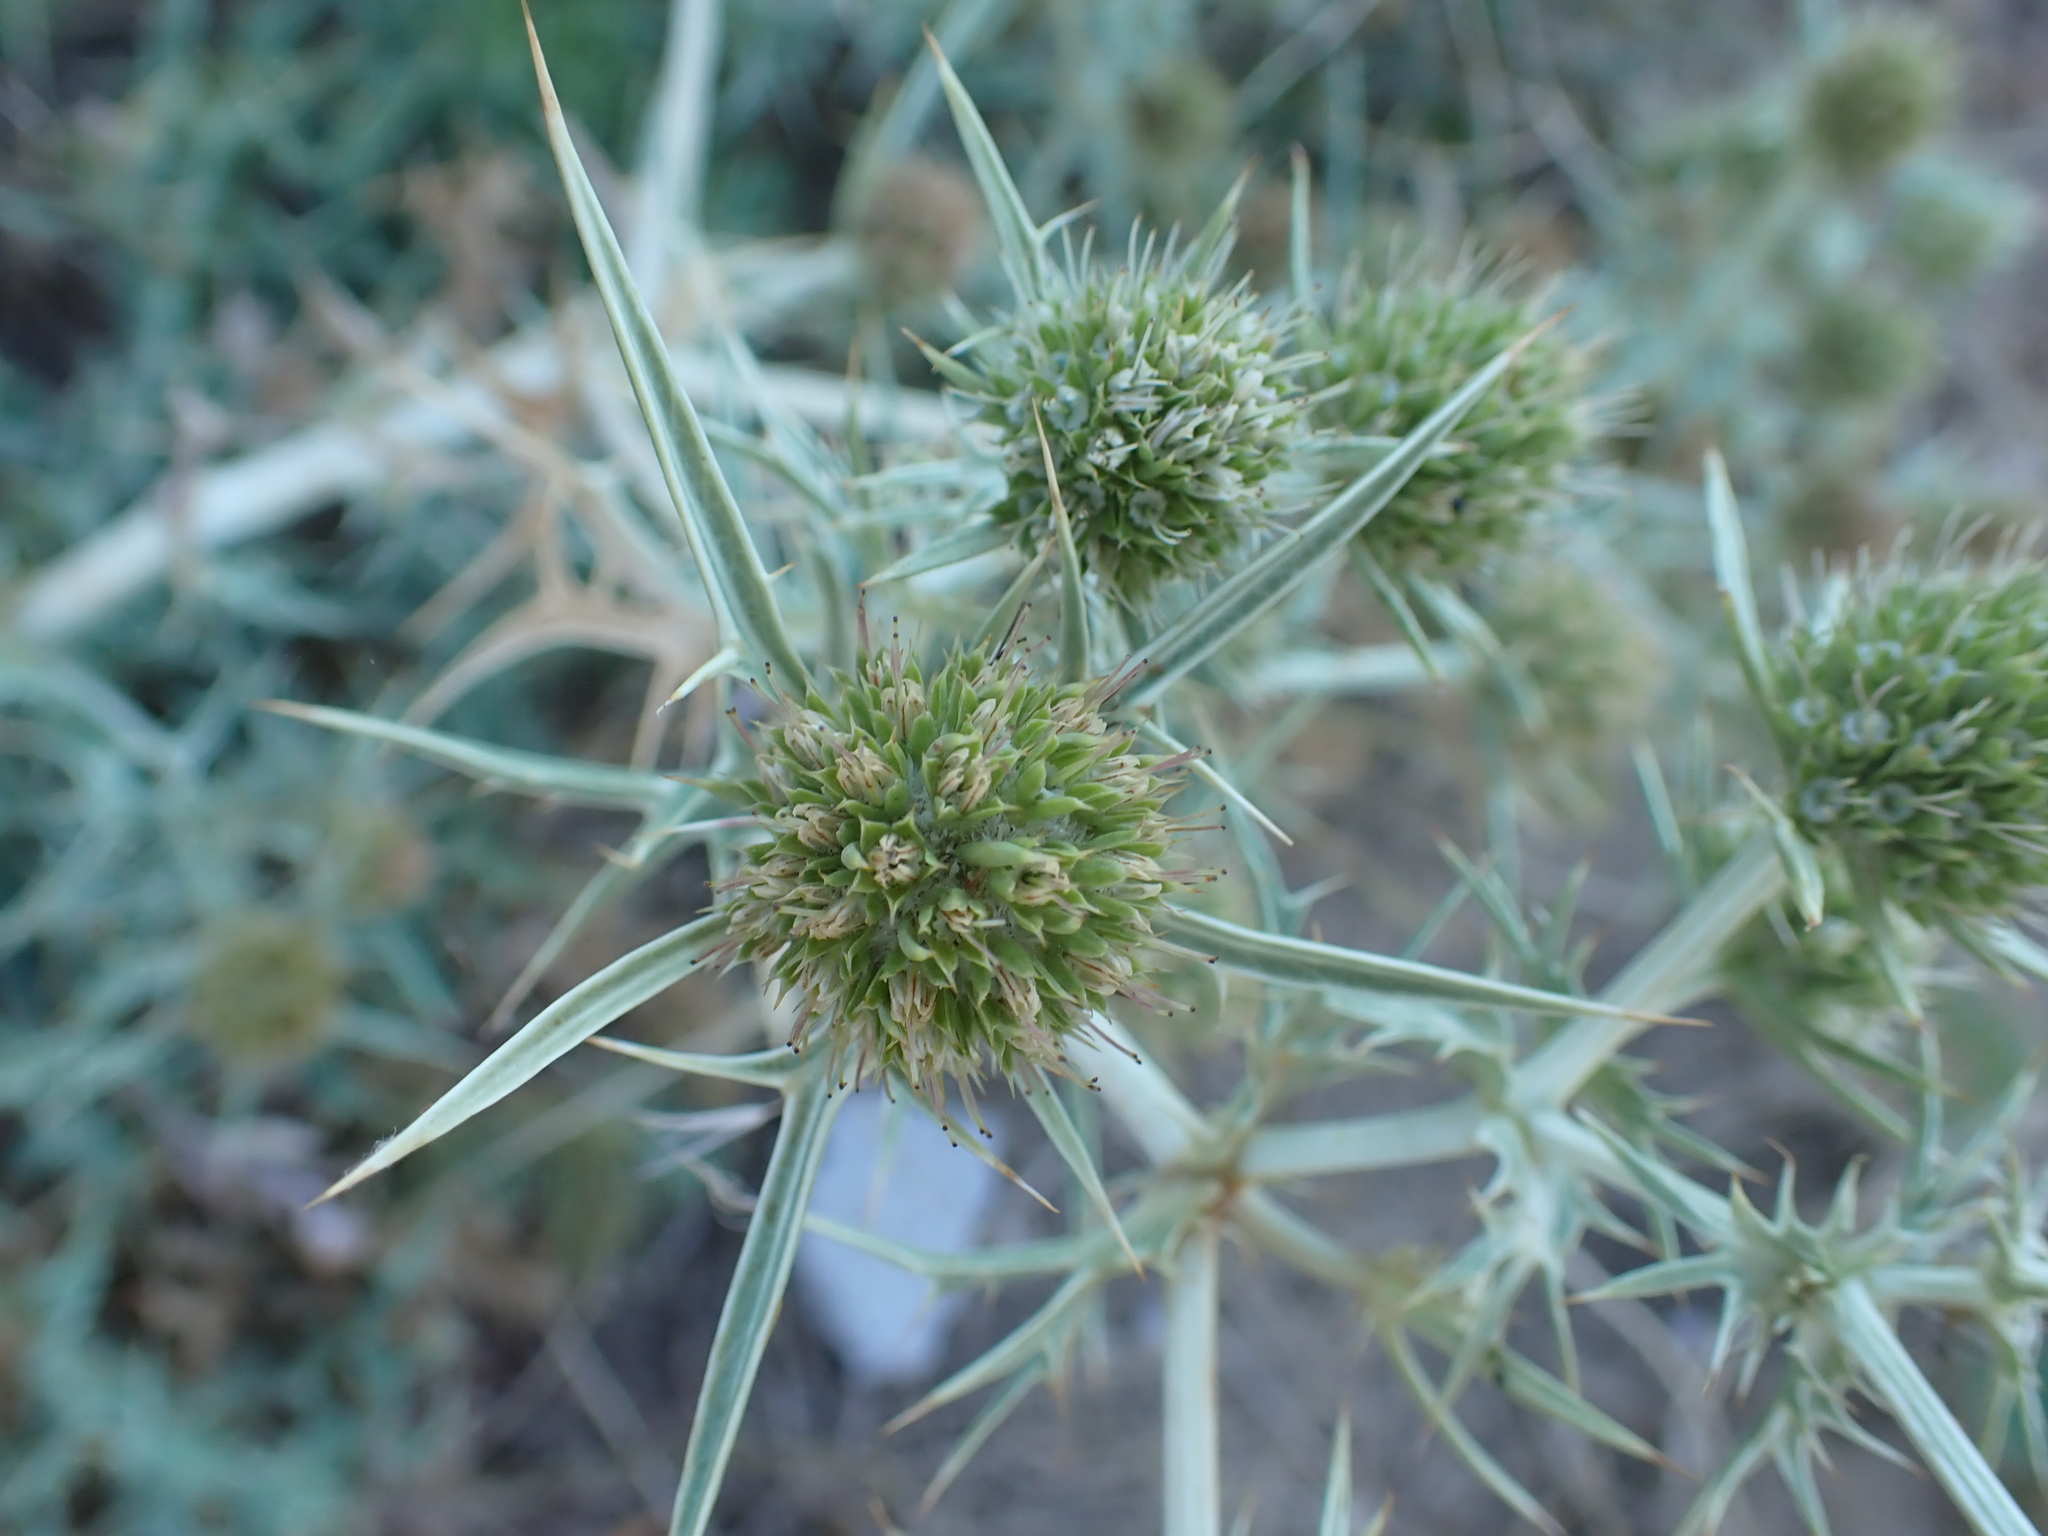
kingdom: Plantae
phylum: Tracheophyta
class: Magnoliopsida
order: Apiales
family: Apiaceae
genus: Eryngium
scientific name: Eryngium campestre
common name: Field eryngo
